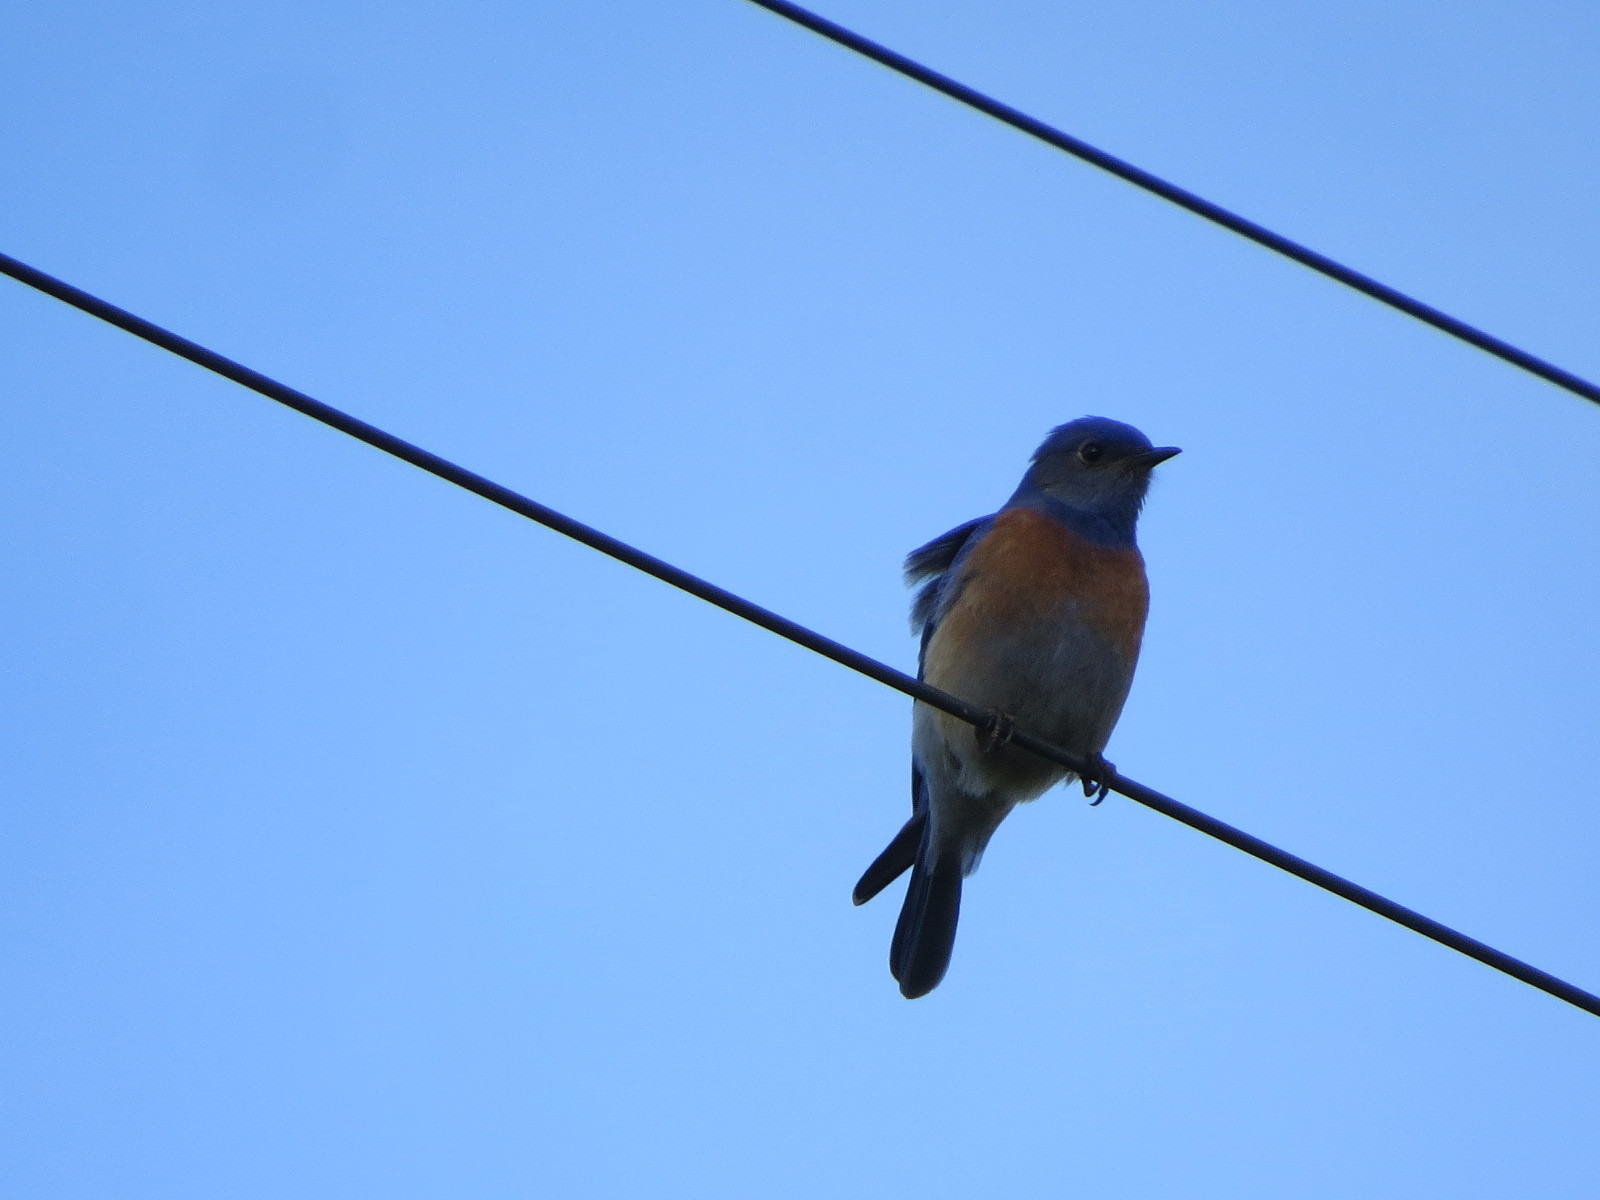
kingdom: Animalia
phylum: Chordata
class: Aves
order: Passeriformes
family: Turdidae
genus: Sialia
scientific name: Sialia mexicana
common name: Western bluebird
